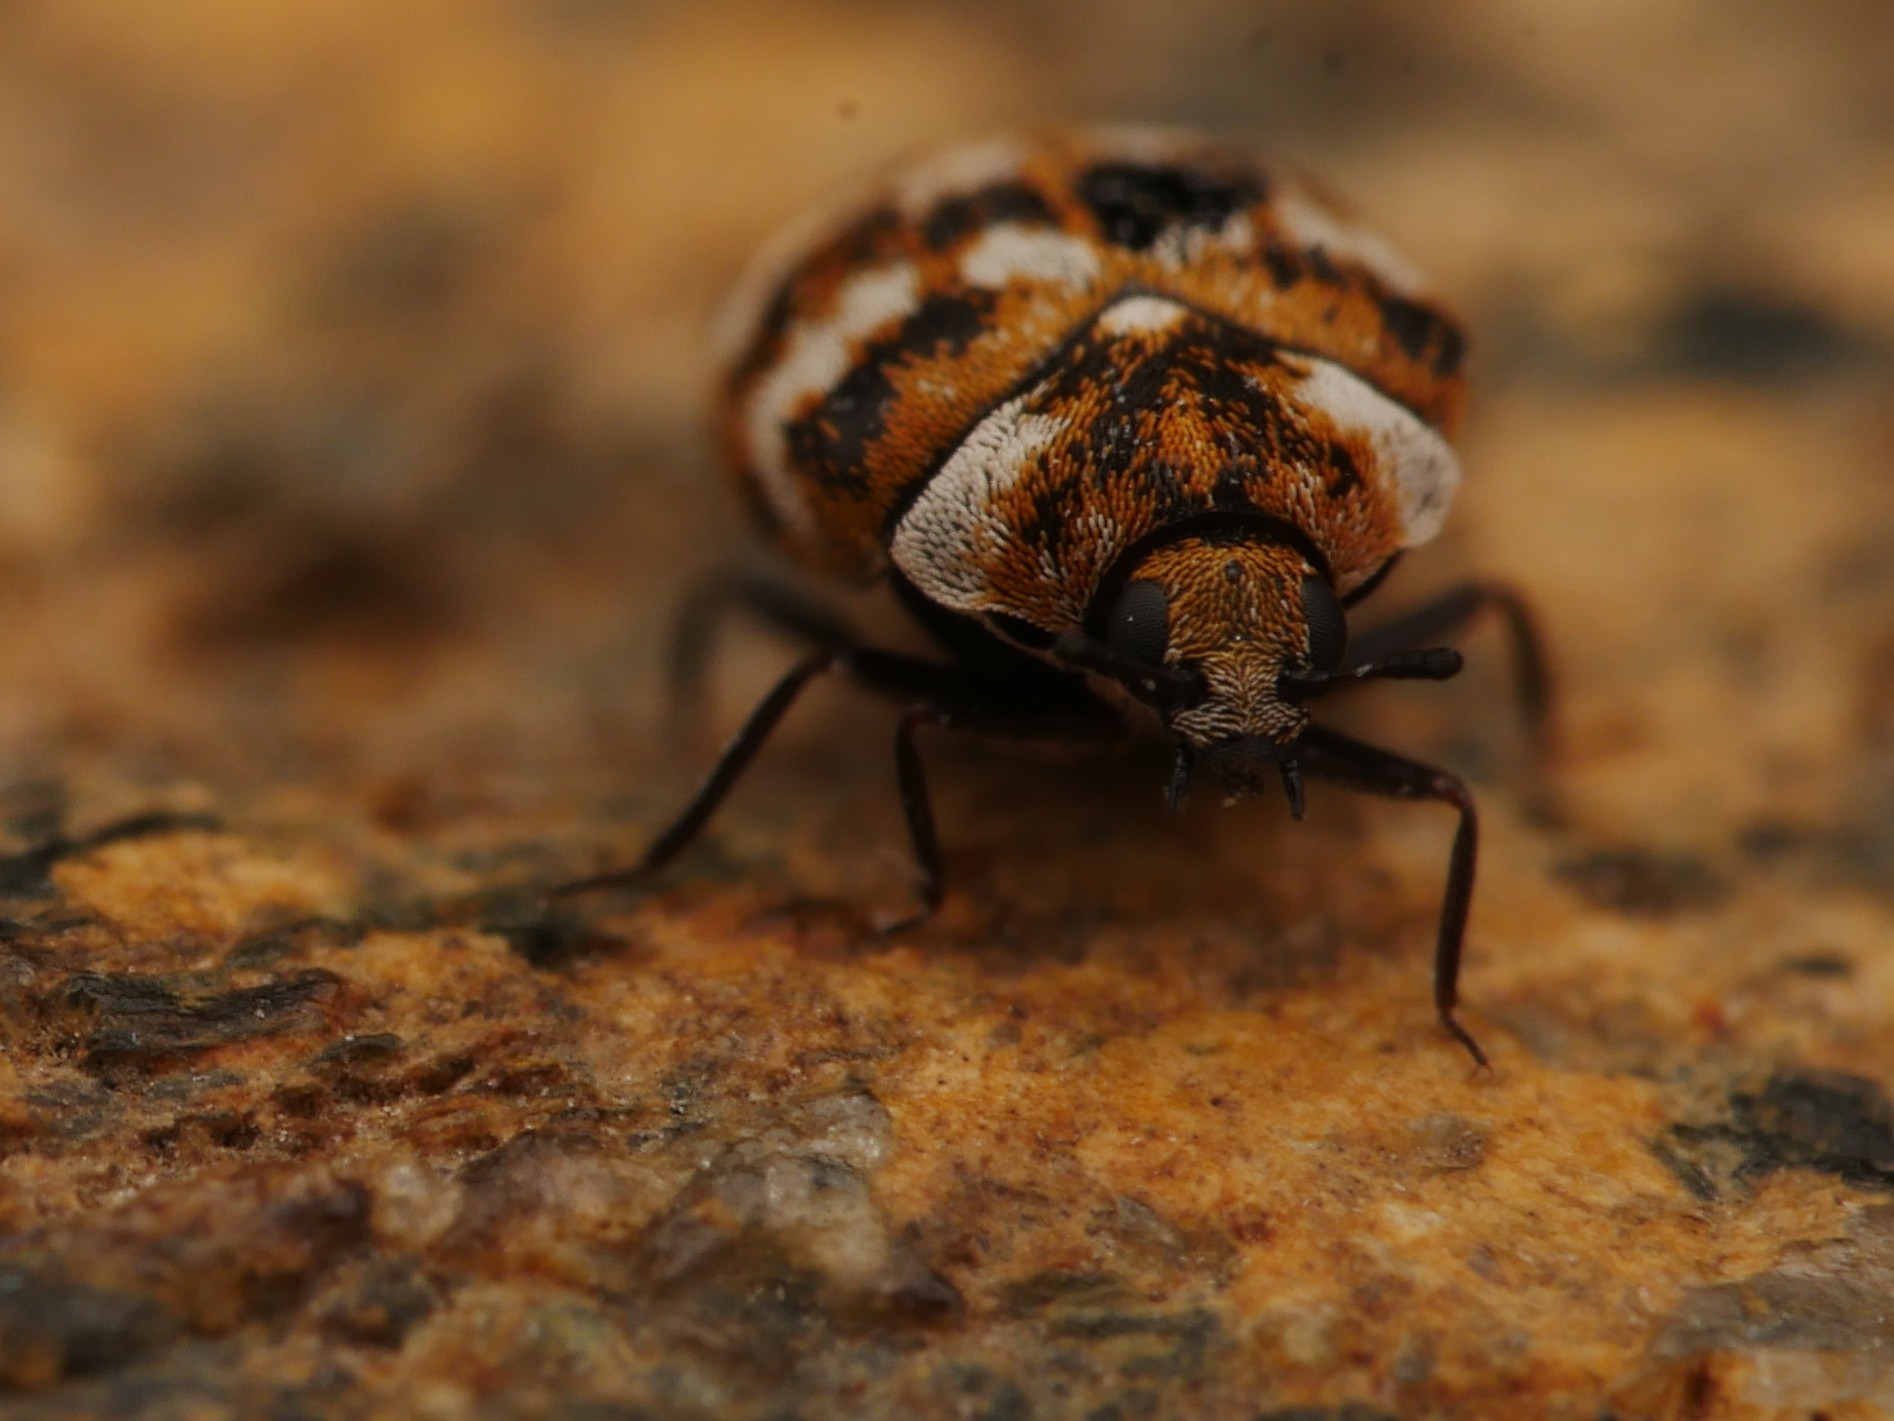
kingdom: Animalia
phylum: Arthropoda
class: Insecta
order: Coleoptera
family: Dermestidae
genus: Anthrenus
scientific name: Anthrenus verbasci
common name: Varied carpet beetle
